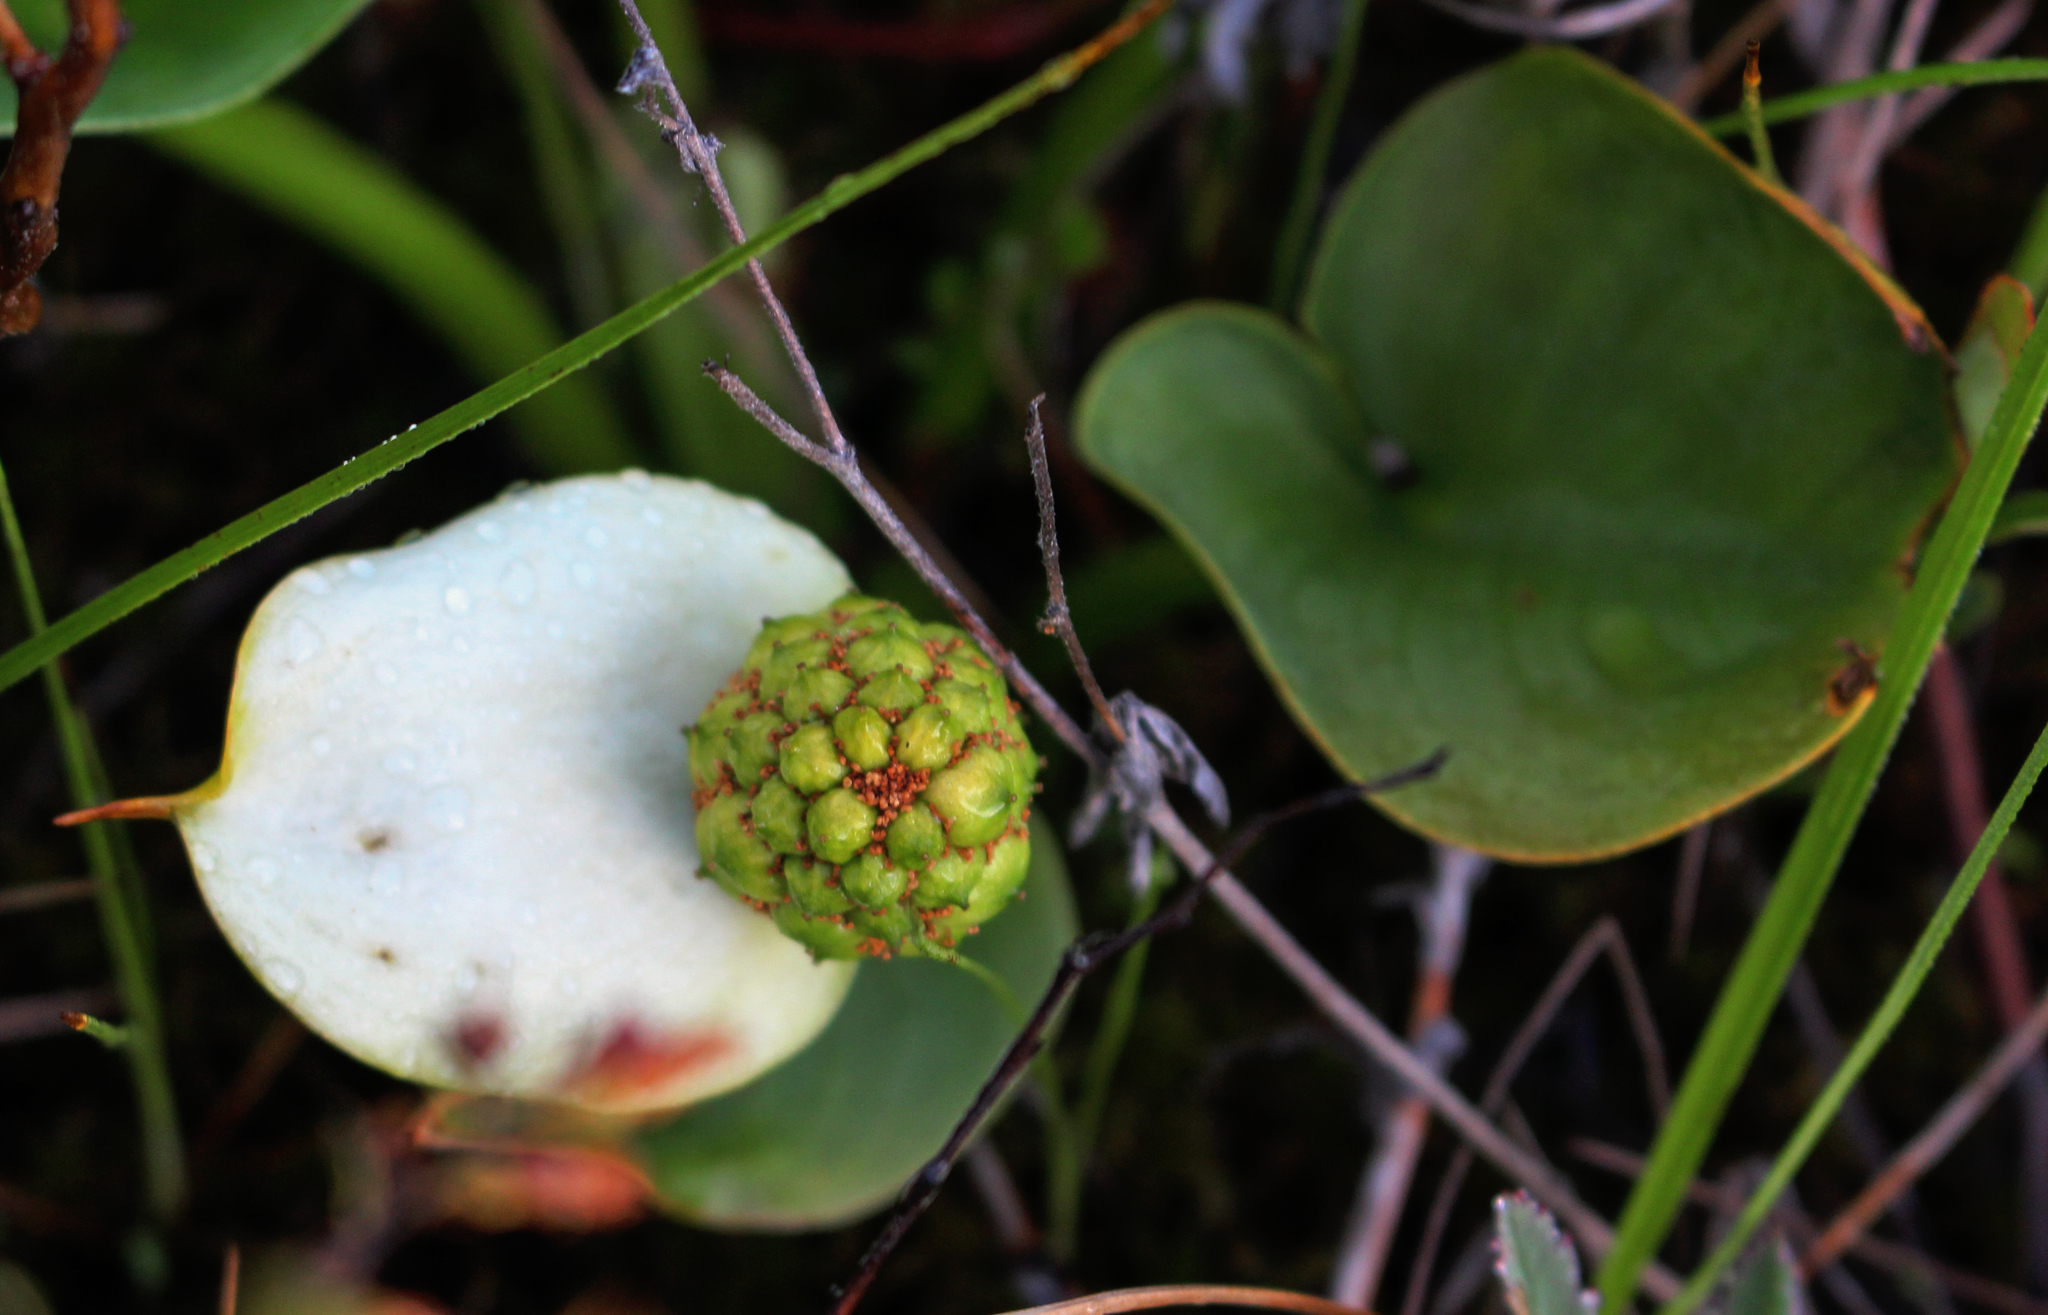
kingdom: Plantae
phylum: Tracheophyta
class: Liliopsida
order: Alismatales
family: Araceae
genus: Calla
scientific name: Calla palustris
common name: Bog arum
